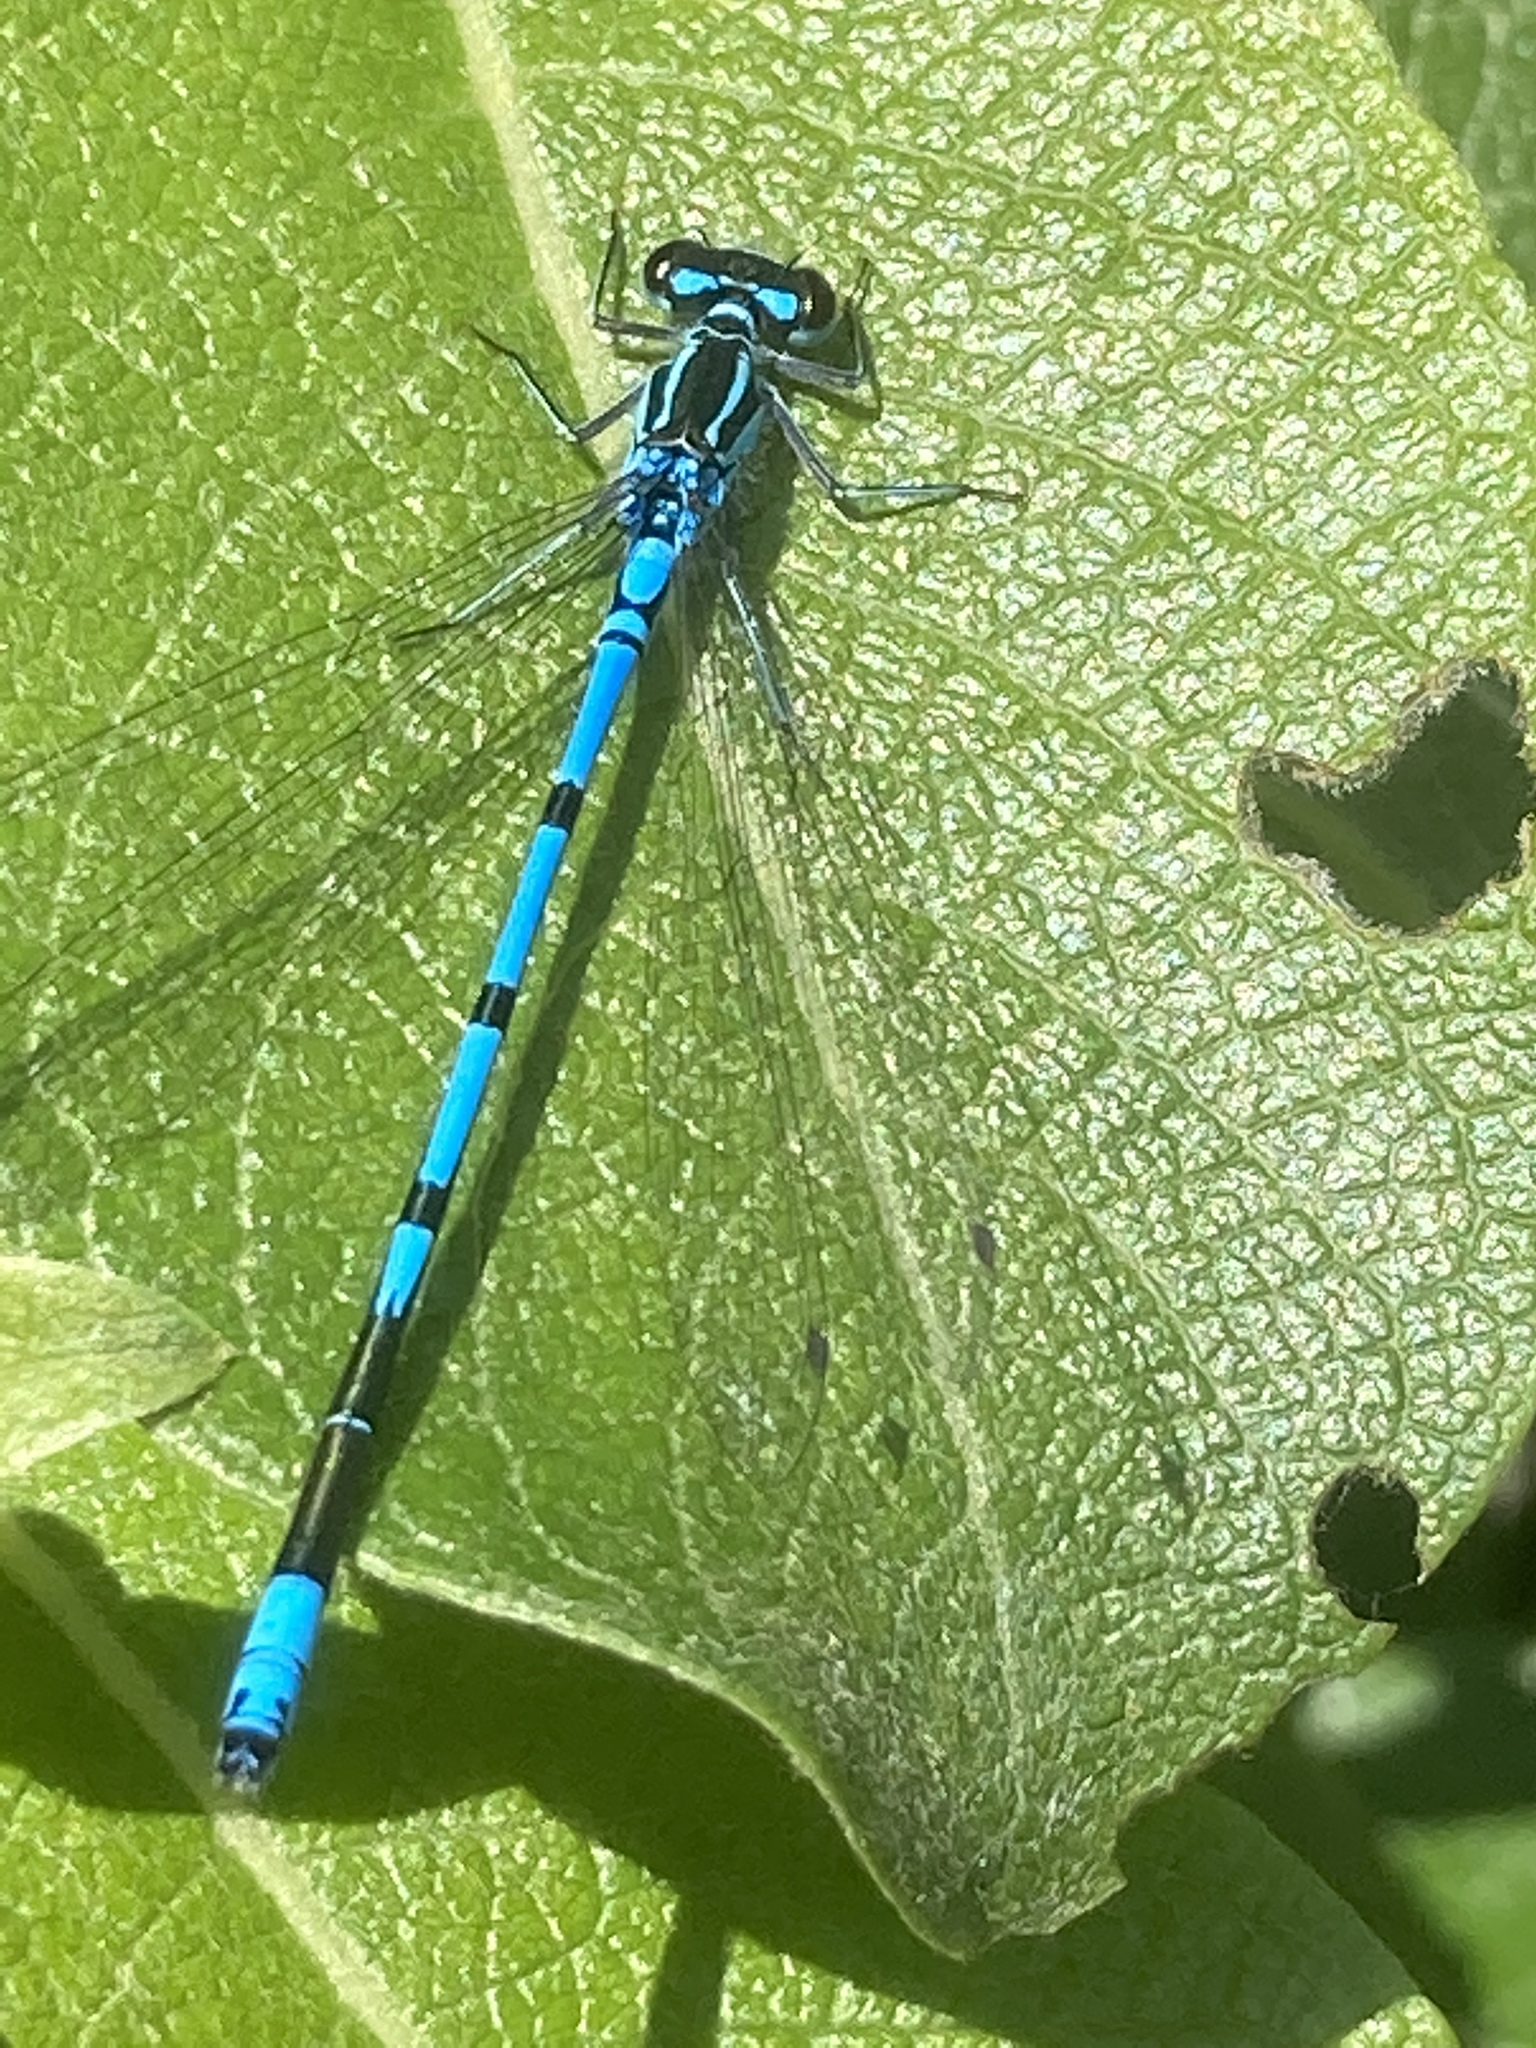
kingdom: Animalia
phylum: Arthropoda
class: Insecta
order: Odonata
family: Coenagrionidae
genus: Coenagrion
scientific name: Coenagrion puella
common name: Azure damselfly
